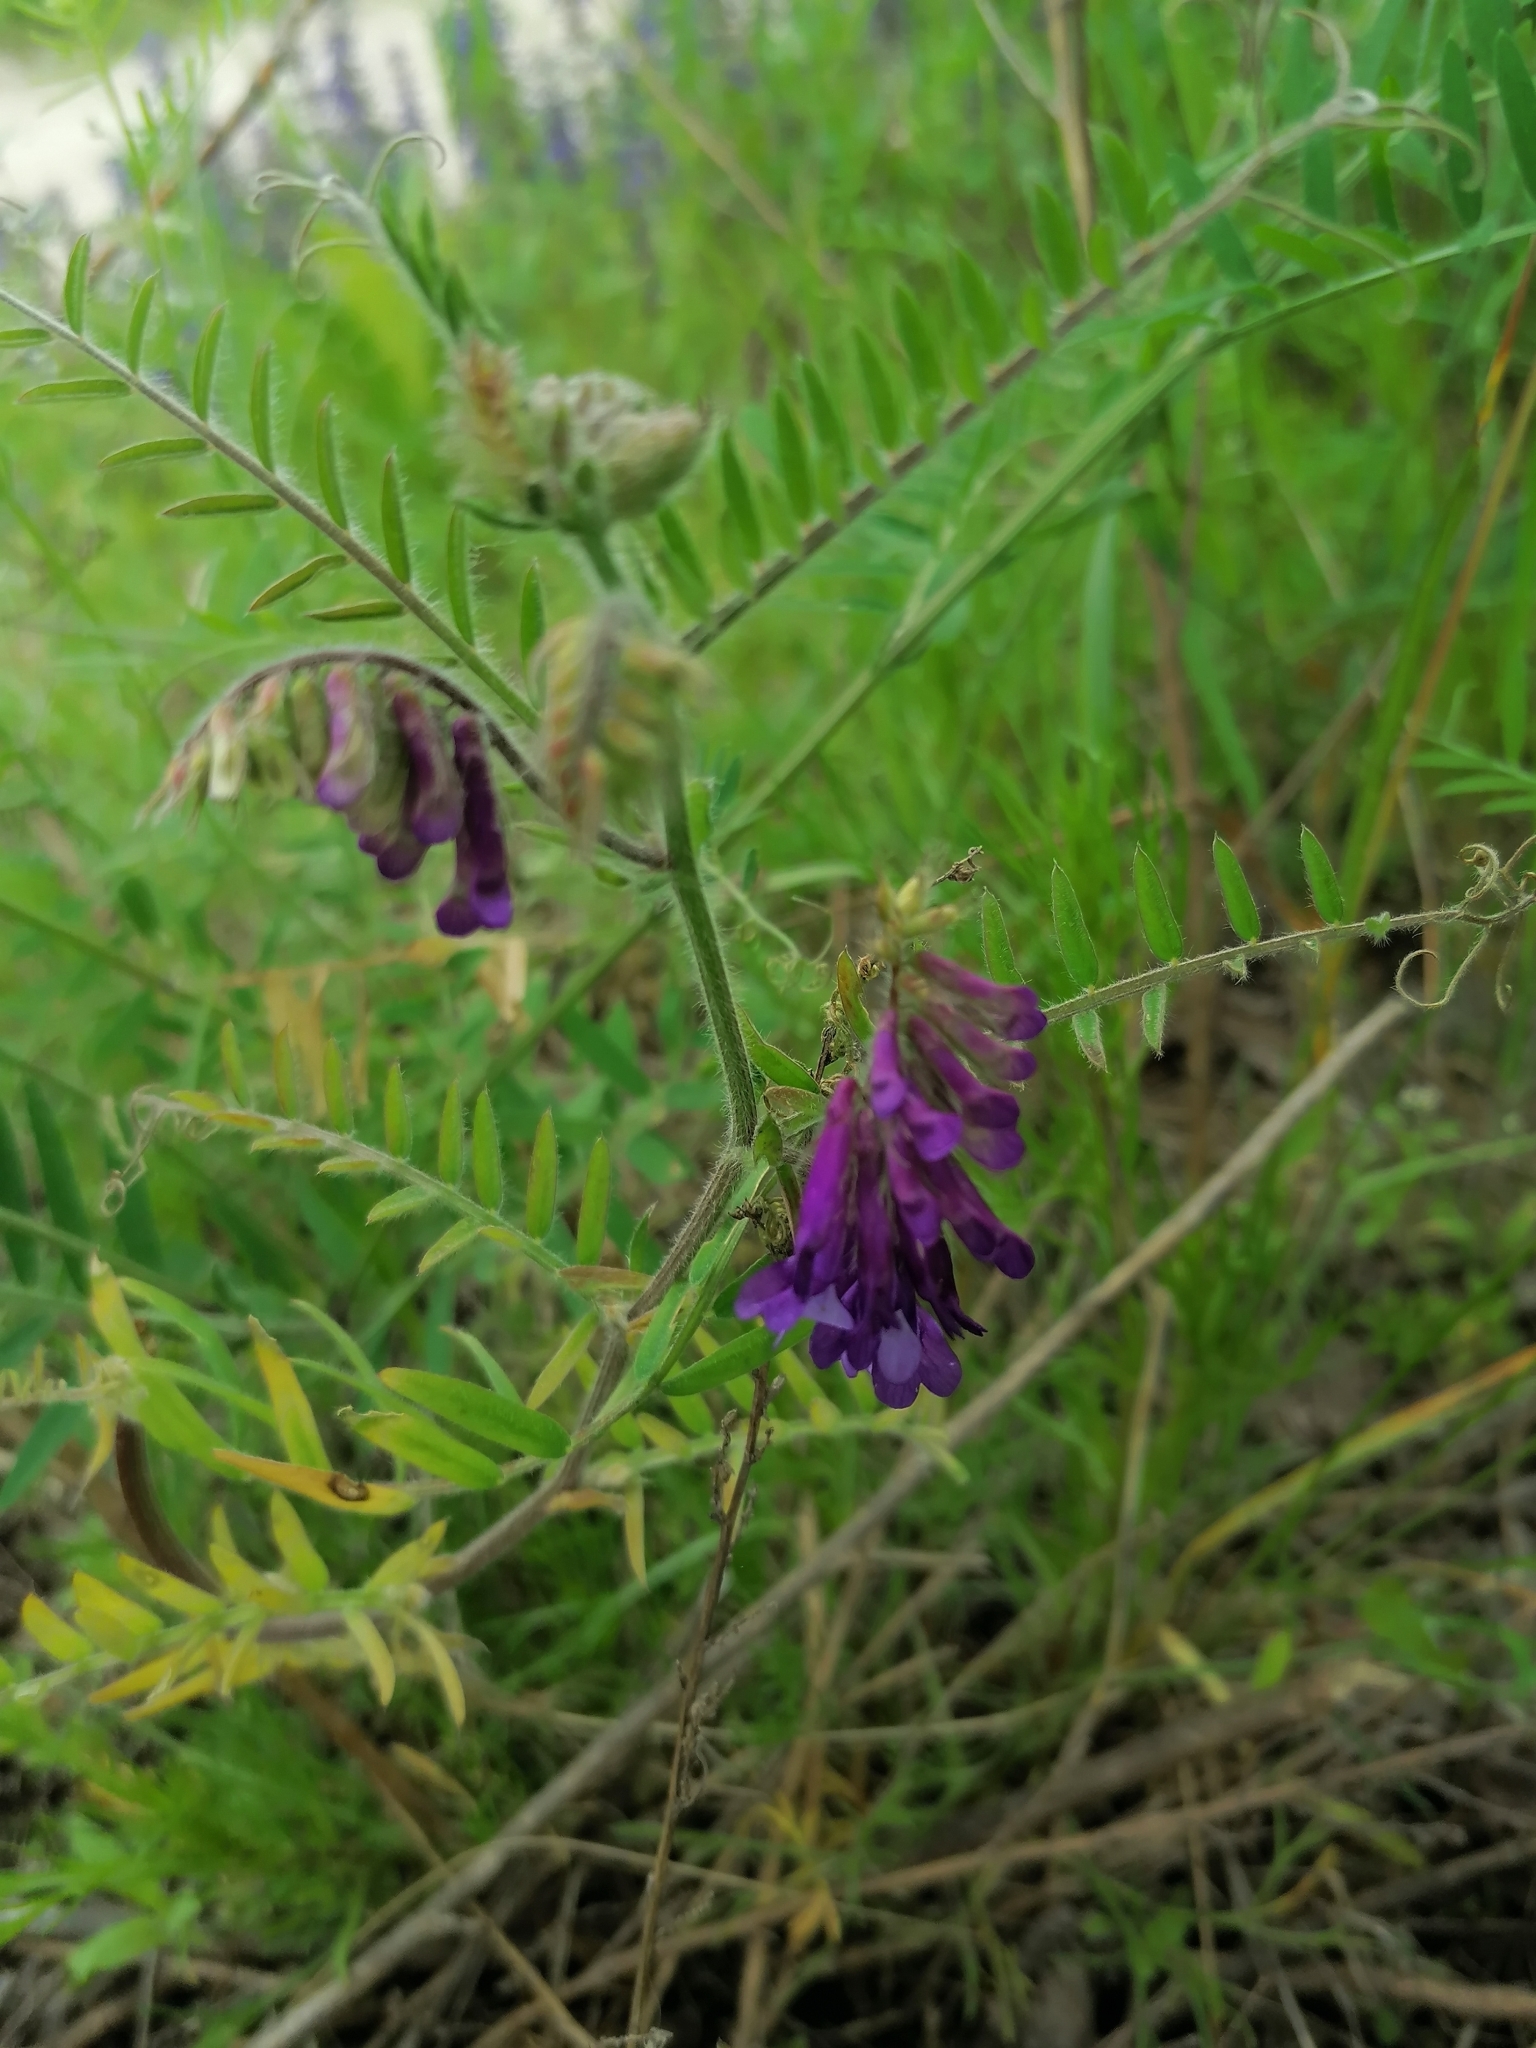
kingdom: Plantae
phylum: Tracheophyta
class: Magnoliopsida
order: Fabales
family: Fabaceae
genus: Vicia
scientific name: Vicia villosa
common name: Fodder vetch
